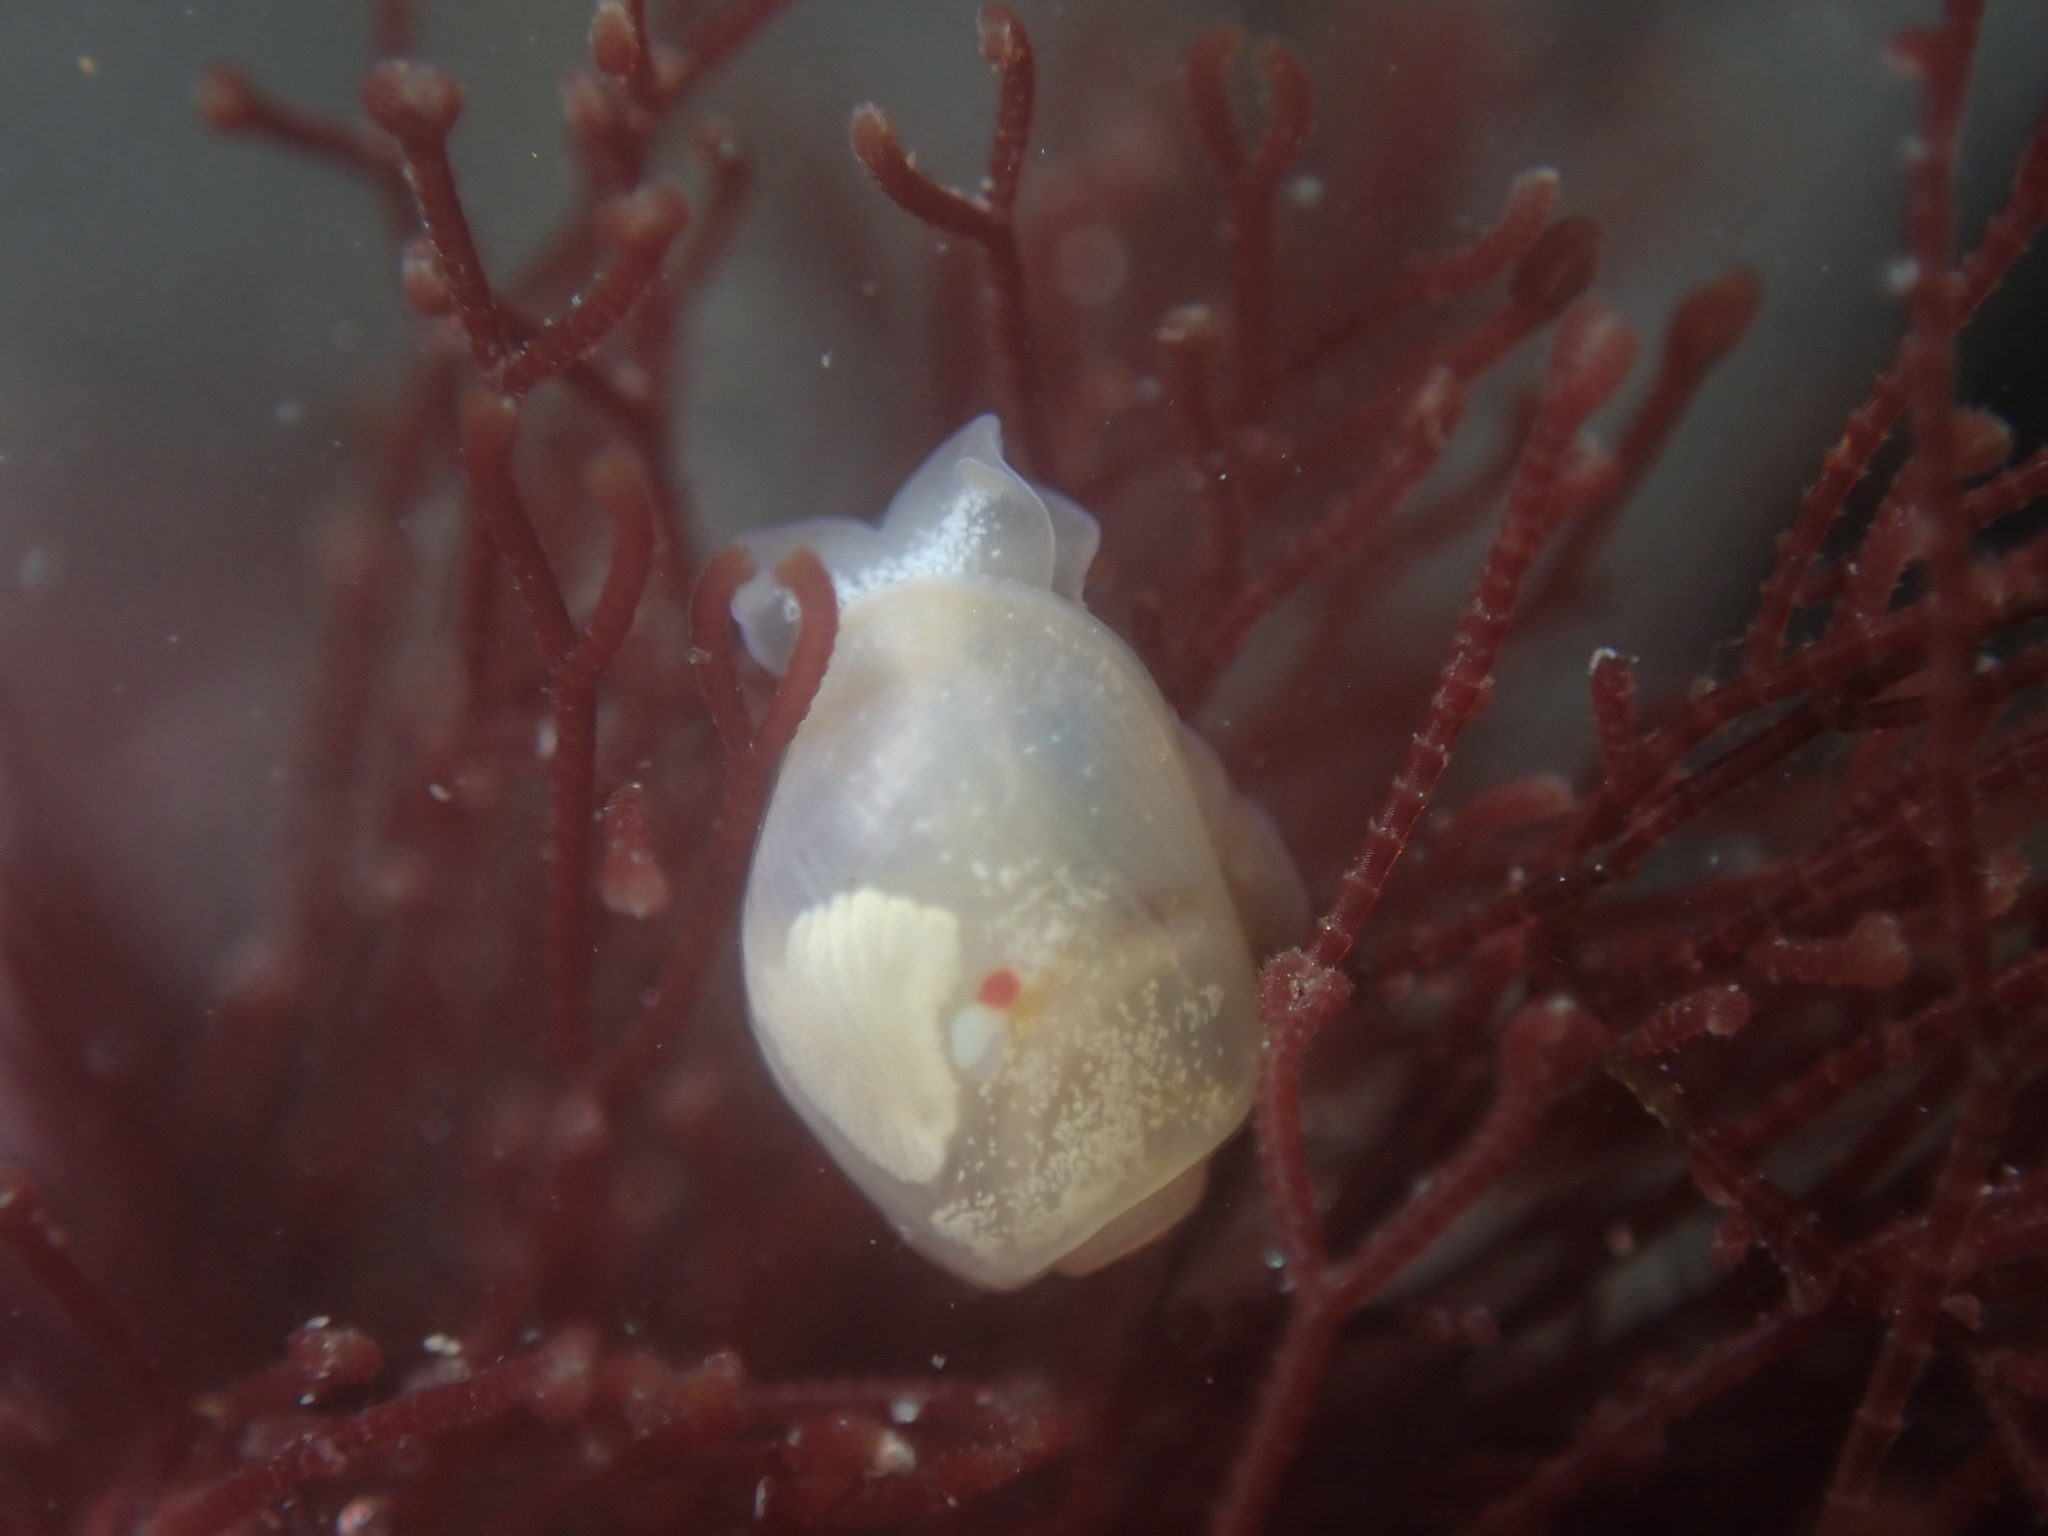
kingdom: Animalia
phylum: Mollusca
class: Gastropoda
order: Cephalaspidea
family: Diaphanidae
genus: Diaphana
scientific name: Diaphana californica
